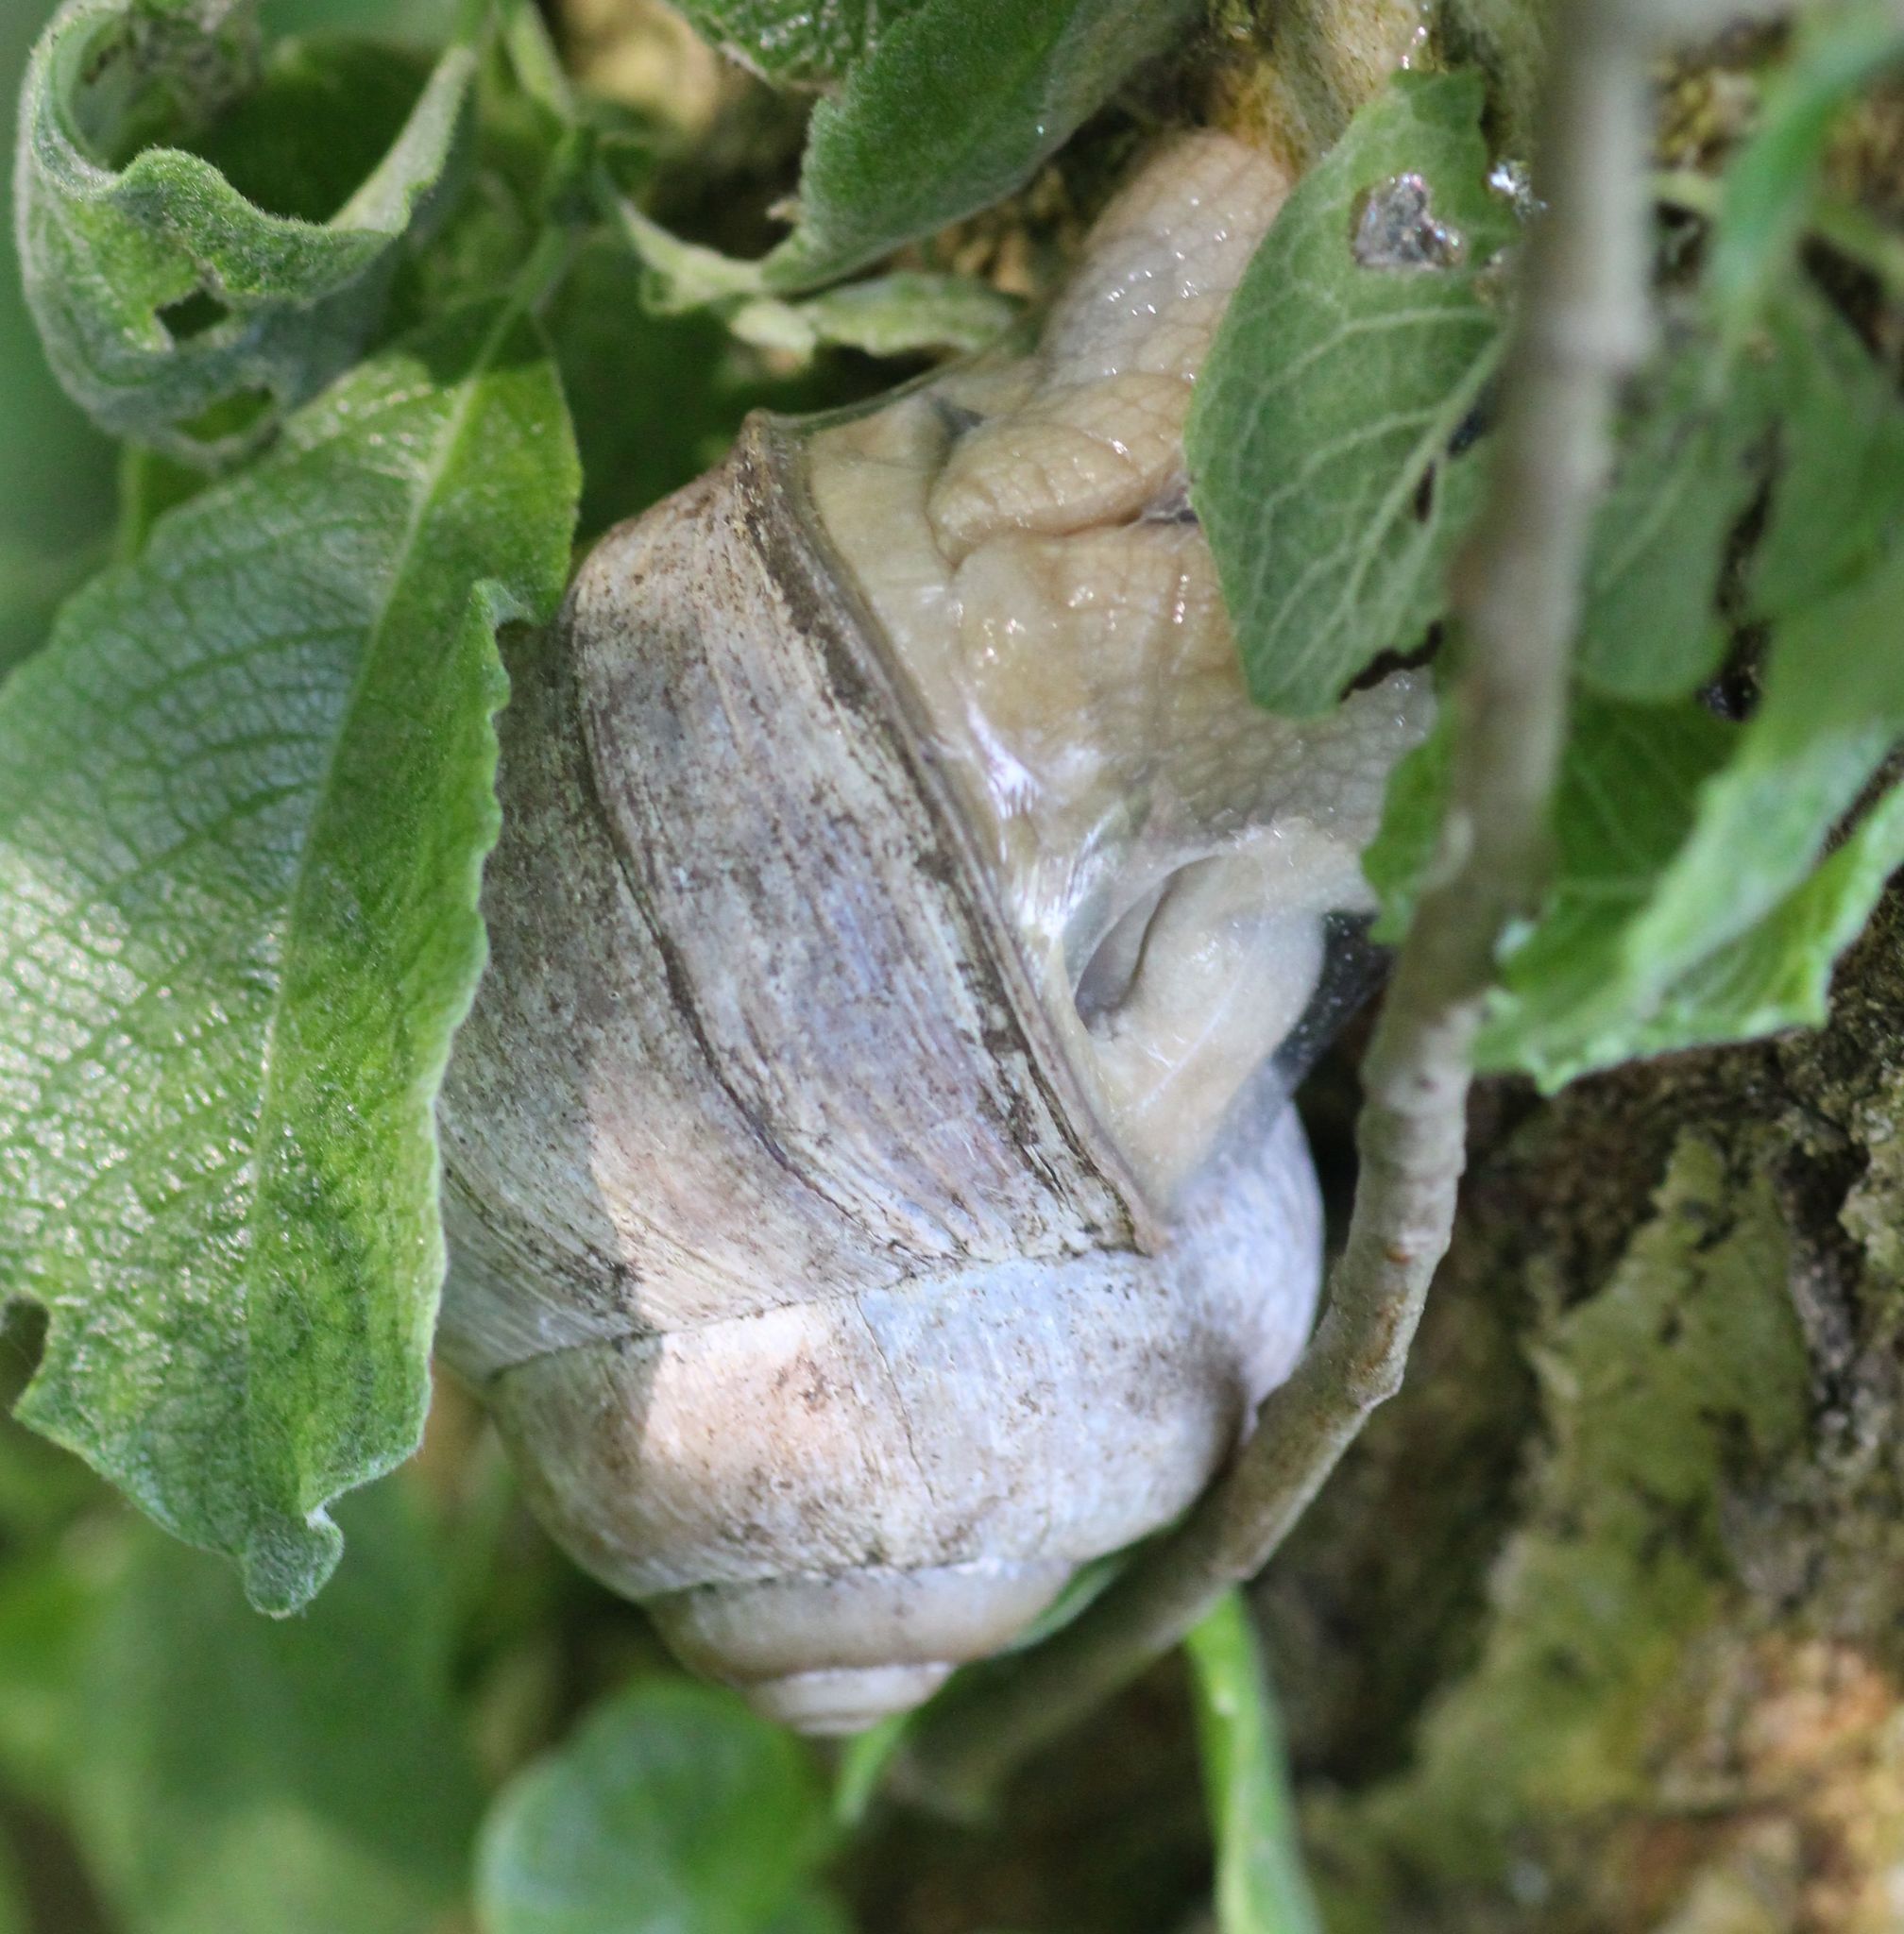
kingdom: Animalia
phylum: Mollusca
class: Gastropoda
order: Stylommatophora
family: Helicidae
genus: Helix
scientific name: Helix pomatia
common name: Roman snail
